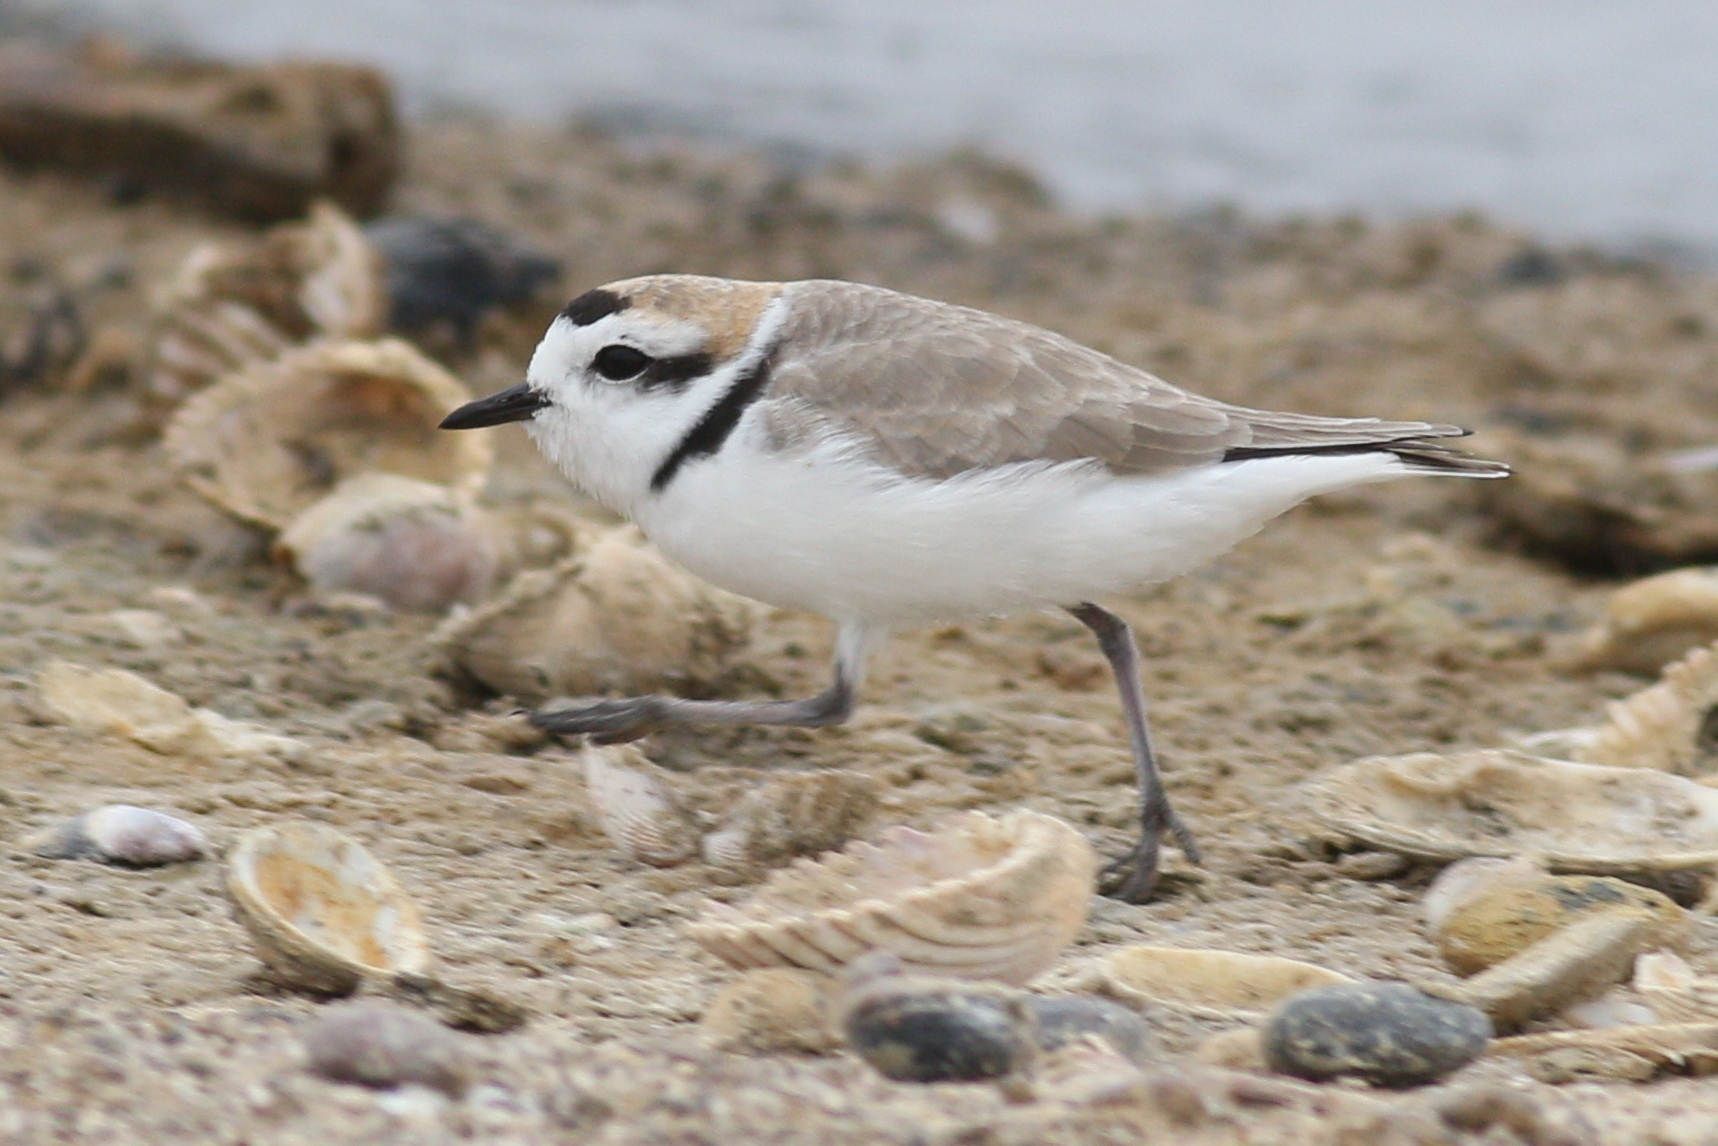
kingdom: Animalia
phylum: Chordata
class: Aves
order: Charadriiformes
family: Charadriidae
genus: Anarhynchus
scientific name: Anarhynchus
